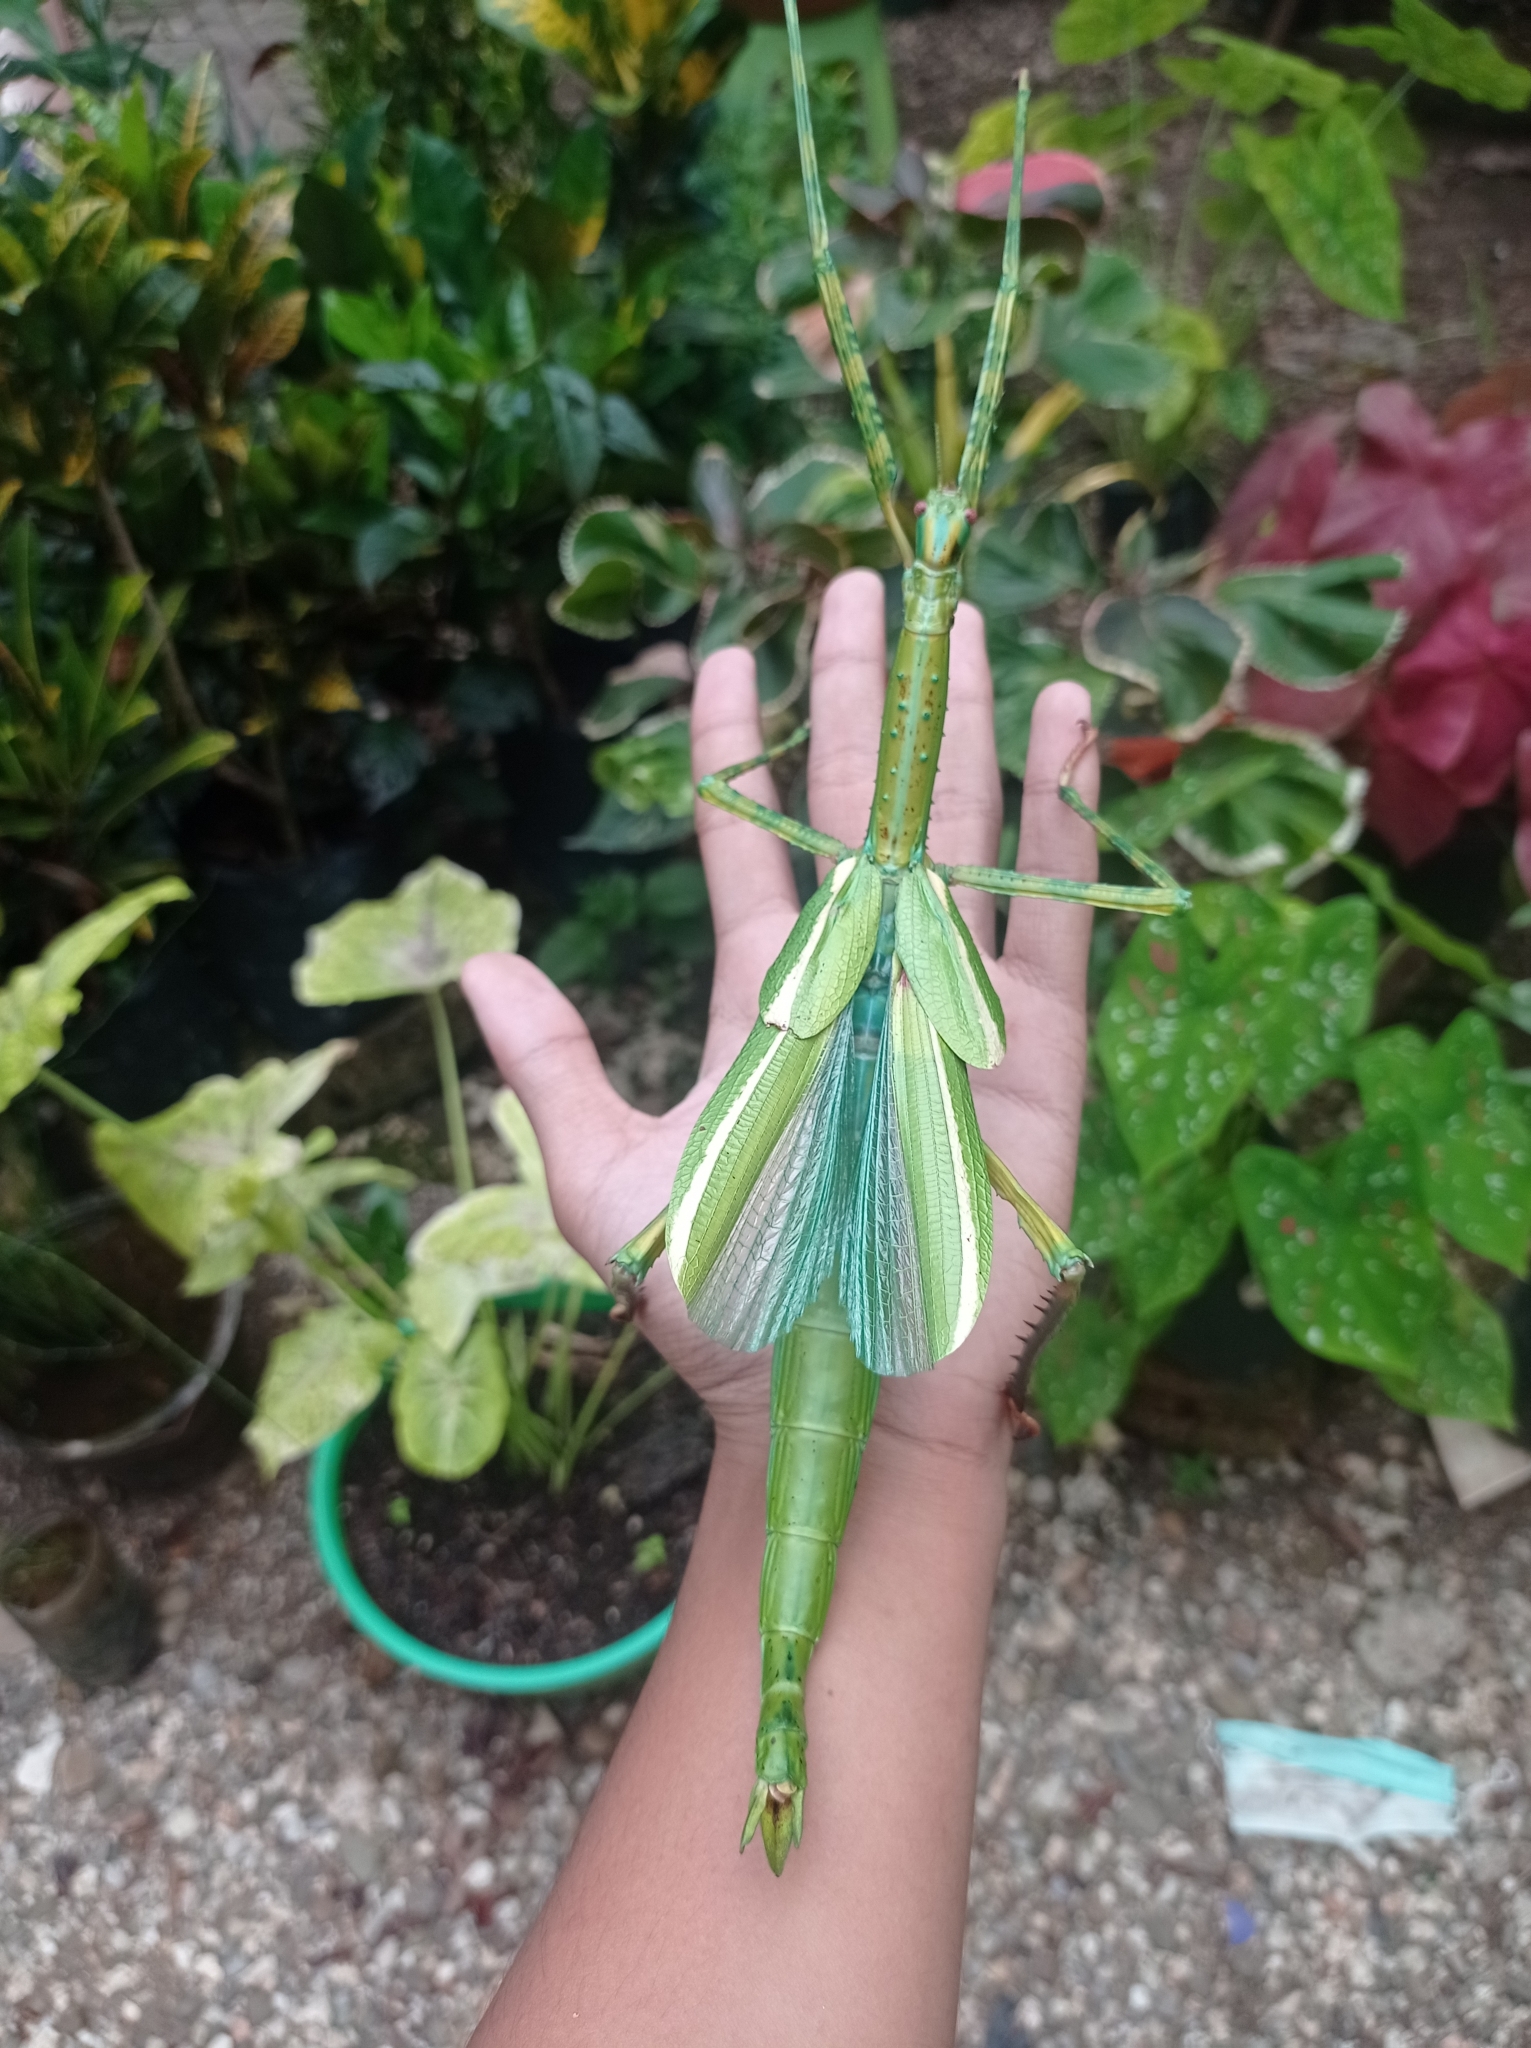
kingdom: Animalia
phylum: Arthropoda
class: Insecta
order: Phasmida
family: Phasmatidae
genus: Eurycnema
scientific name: Eurycnema versirubra
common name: Red-winged green giant stick-insect
